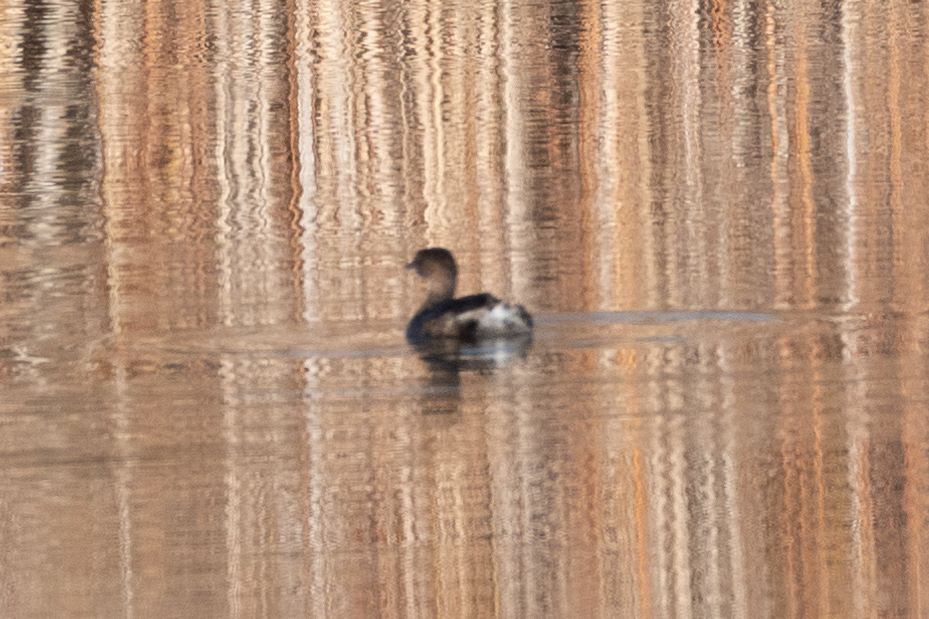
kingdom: Animalia
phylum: Chordata
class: Aves
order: Podicipediformes
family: Podicipedidae
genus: Podilymbus
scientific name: Podilymbus podiceps
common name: Pied-billed grebe
